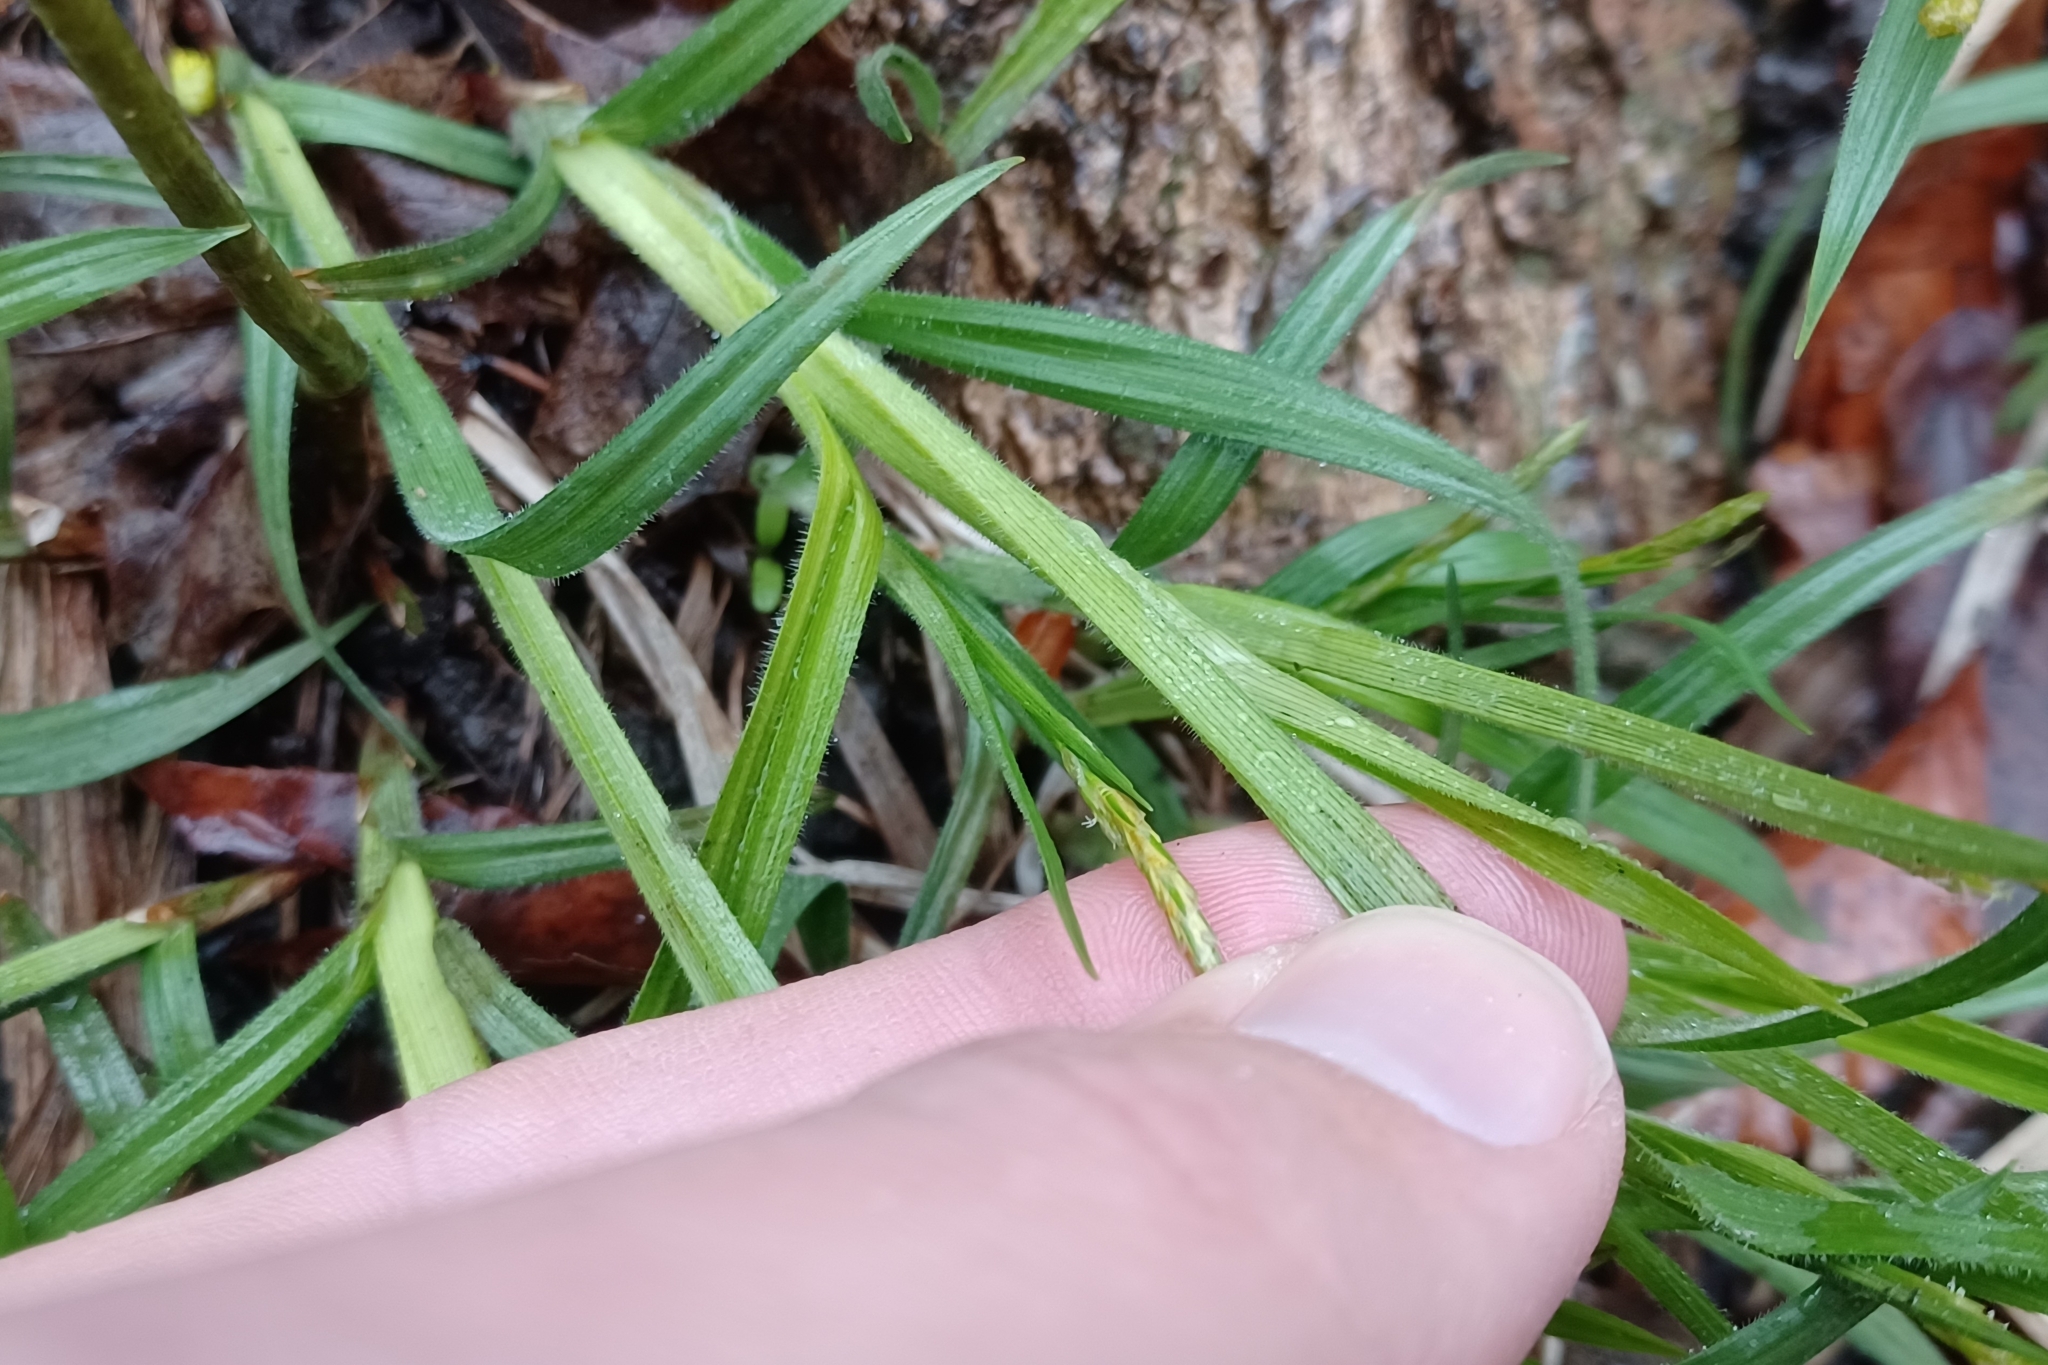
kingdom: Plantae
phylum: Tracheophyta
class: Liliopsida
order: Poales
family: Cyperaceae
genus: Carex
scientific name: Carex hirtifolia
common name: Hairy sedge
